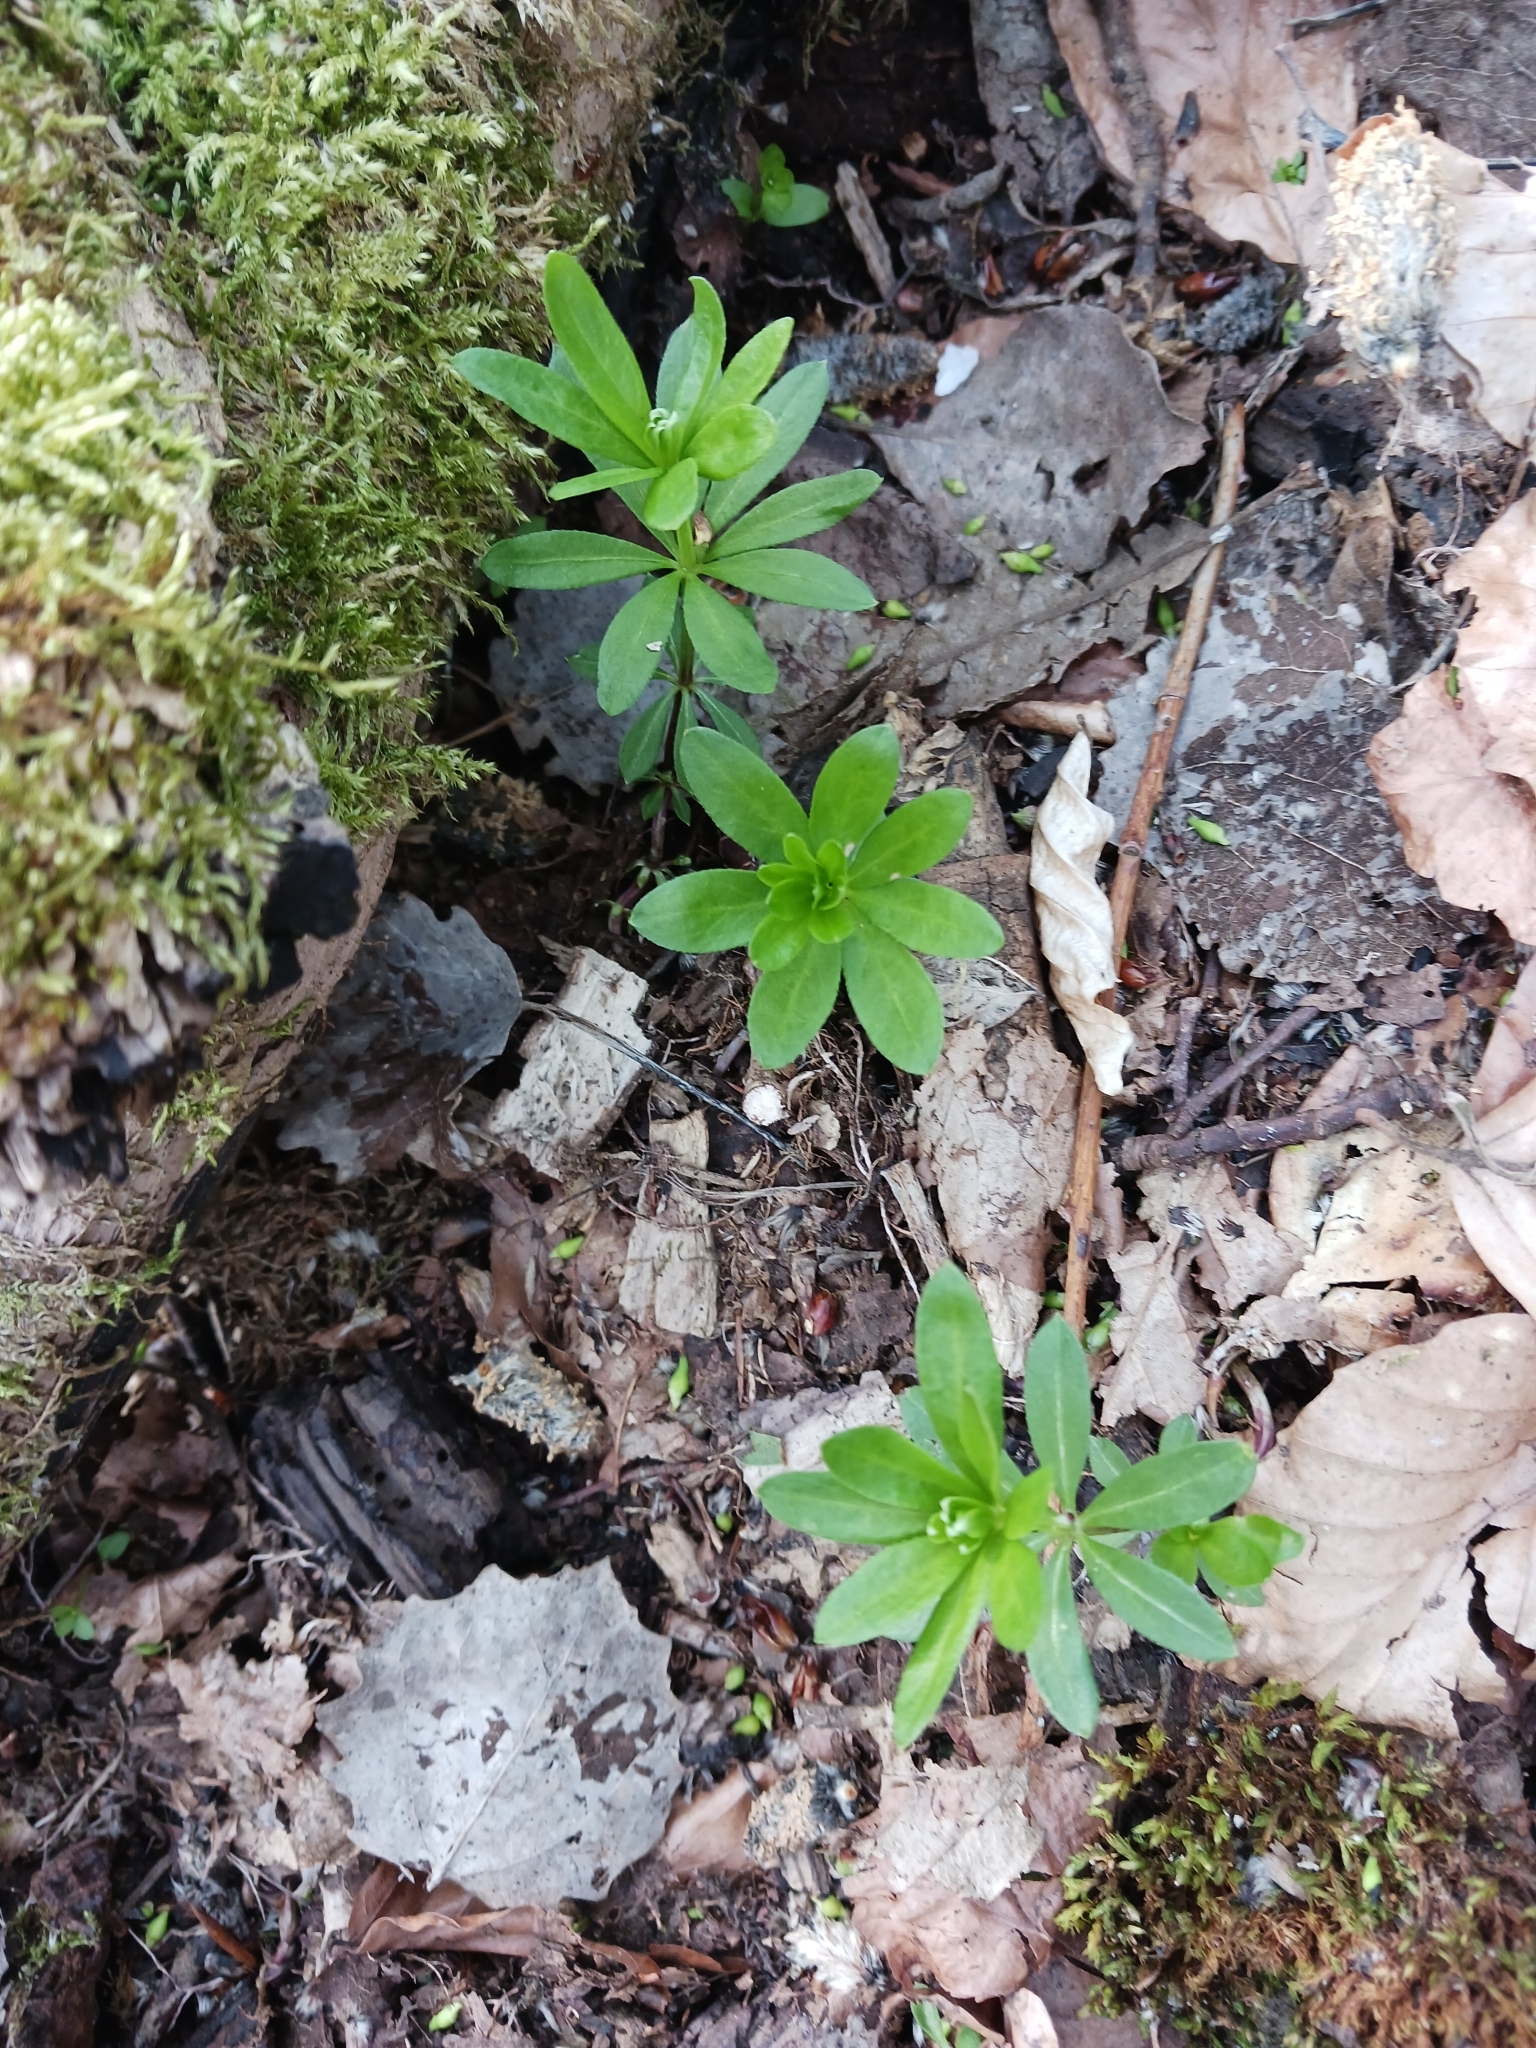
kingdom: Plantae
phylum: Tracheophyta
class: Magnoliopsida
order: Gentianales
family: Rubiaceae
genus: Galium
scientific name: Galium odoratum
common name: Sweet woodruff
